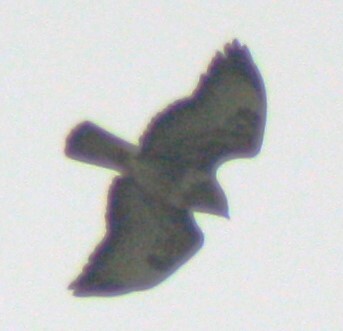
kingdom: Animalia
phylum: Chordata
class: Aves
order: Accipitriformes
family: Accipitridae
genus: Buteo
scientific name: Buteo buteo
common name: Common buzzard
